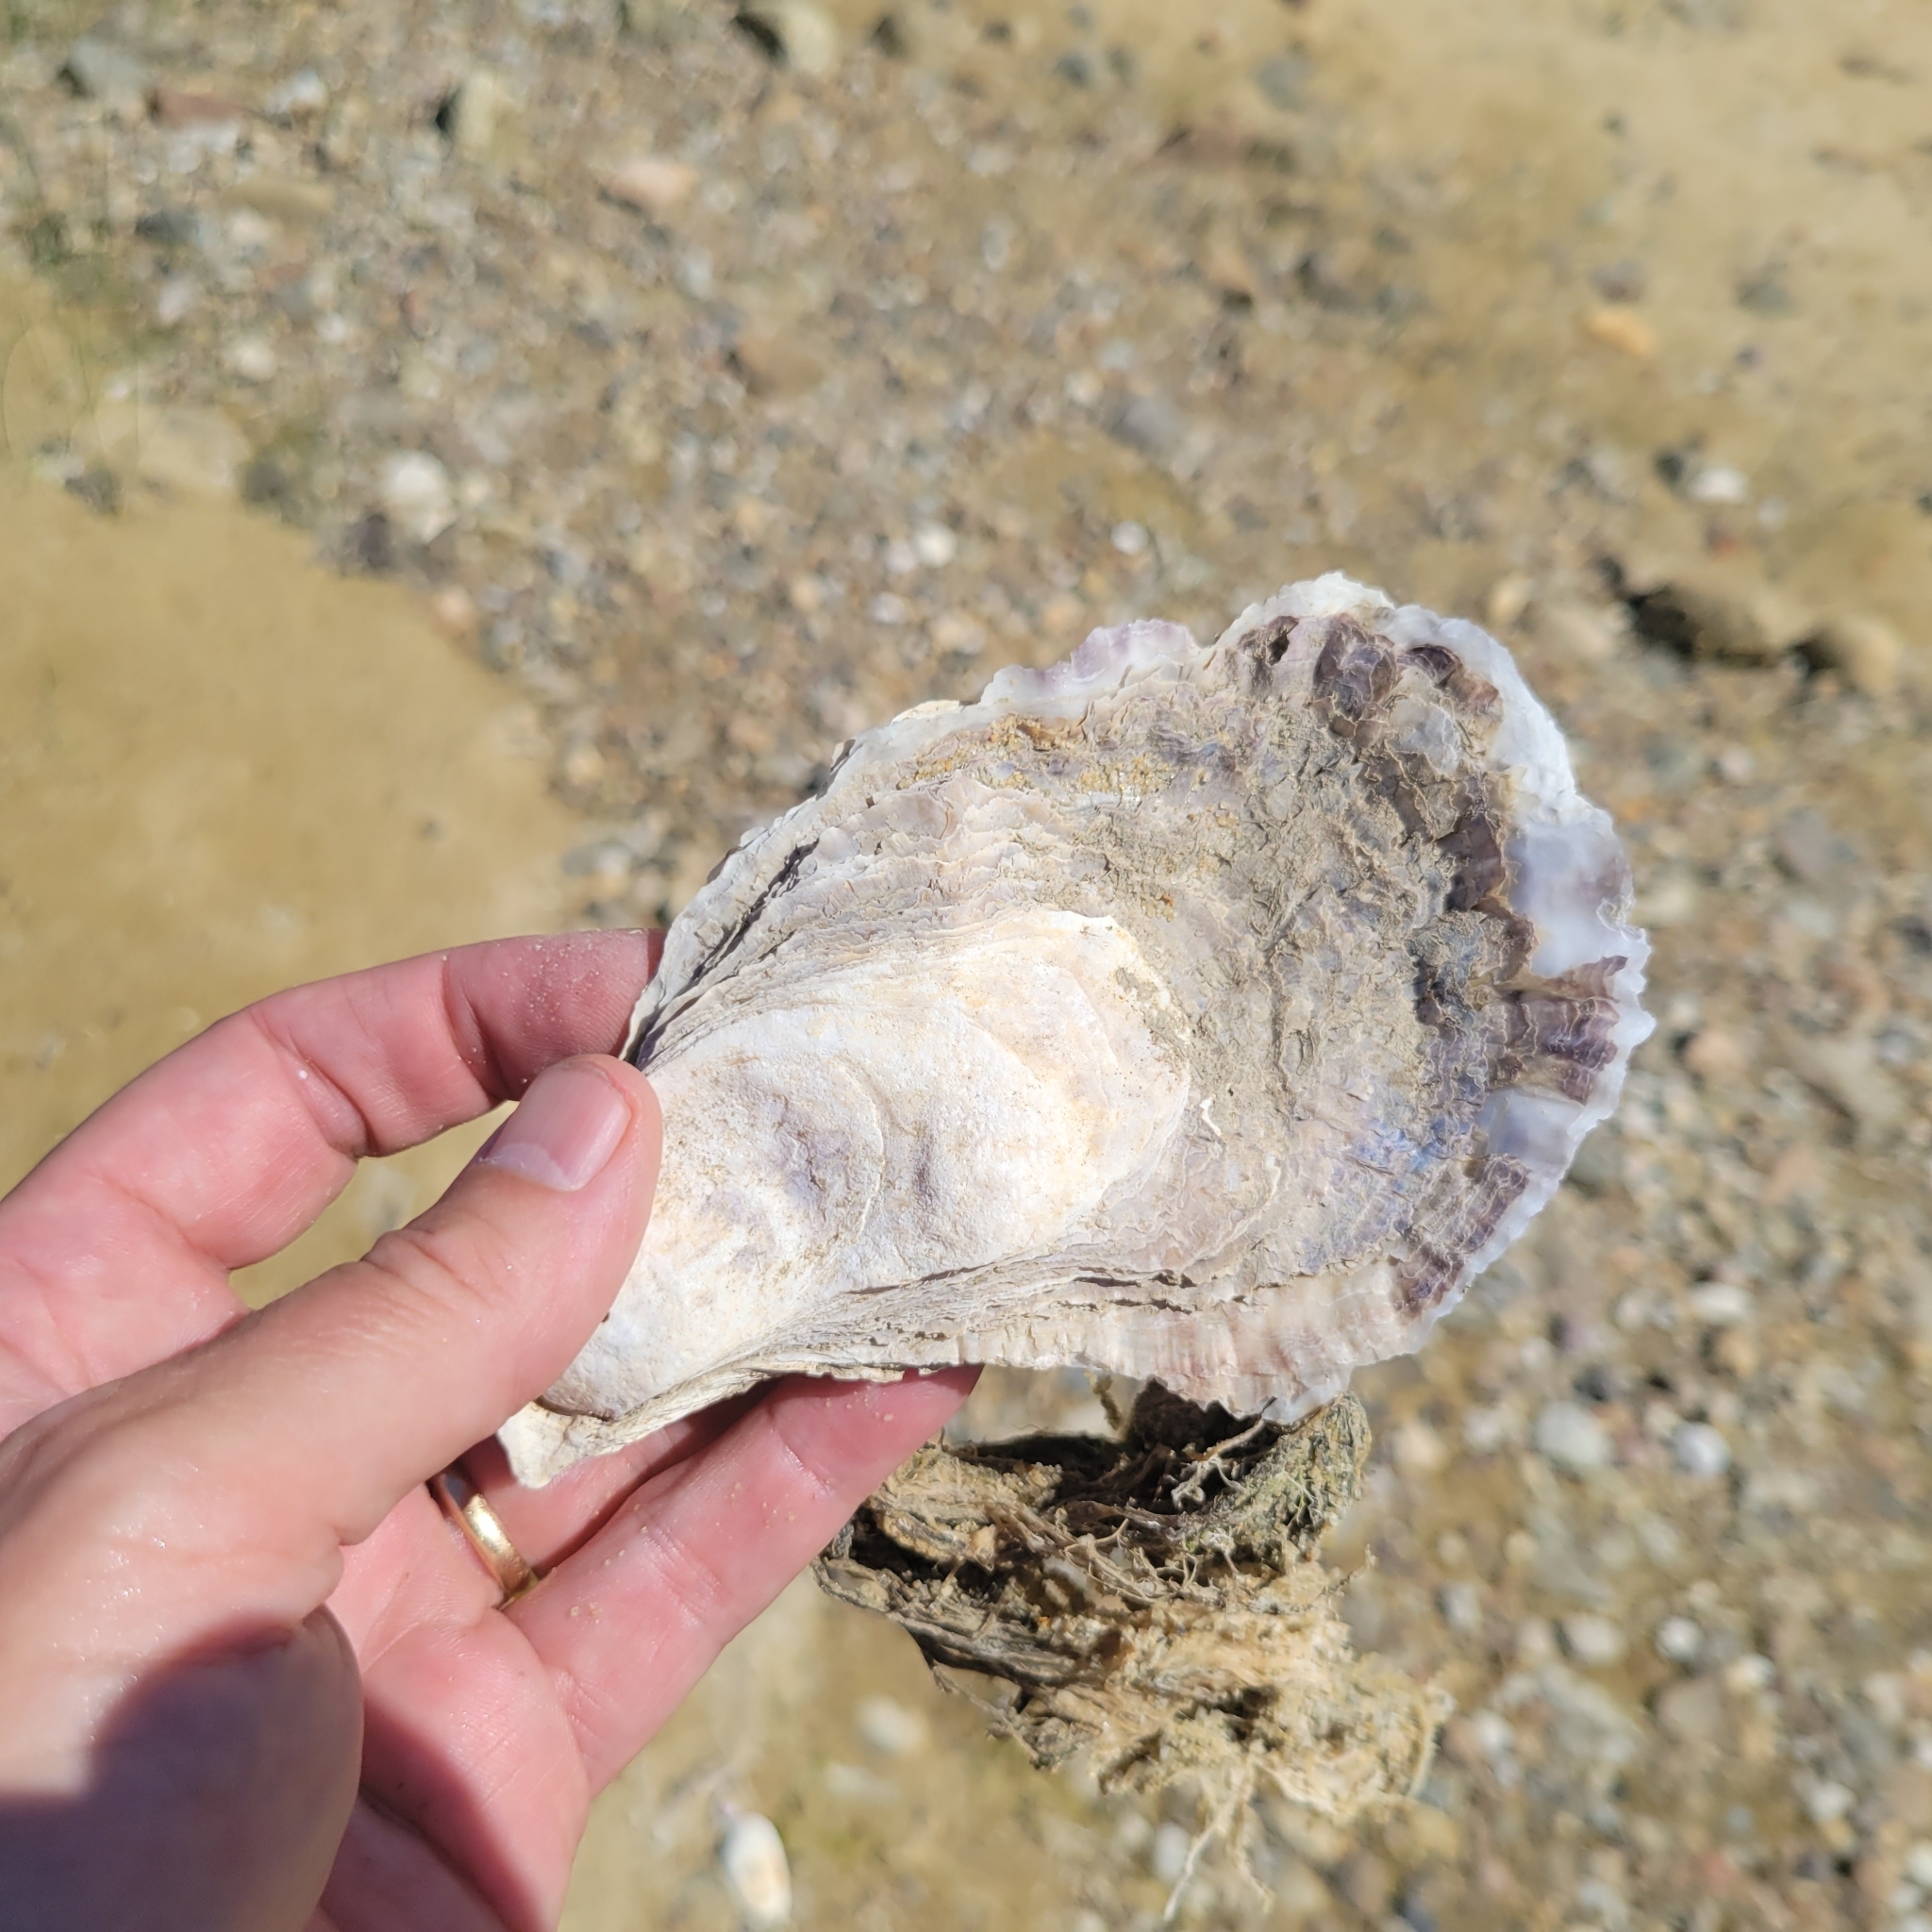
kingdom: Animalia
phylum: Mollusca
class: Bivalvia
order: Ostreida
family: Ostreidae
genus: Crassostrea
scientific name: Crassostrea virginica
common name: American oyster
